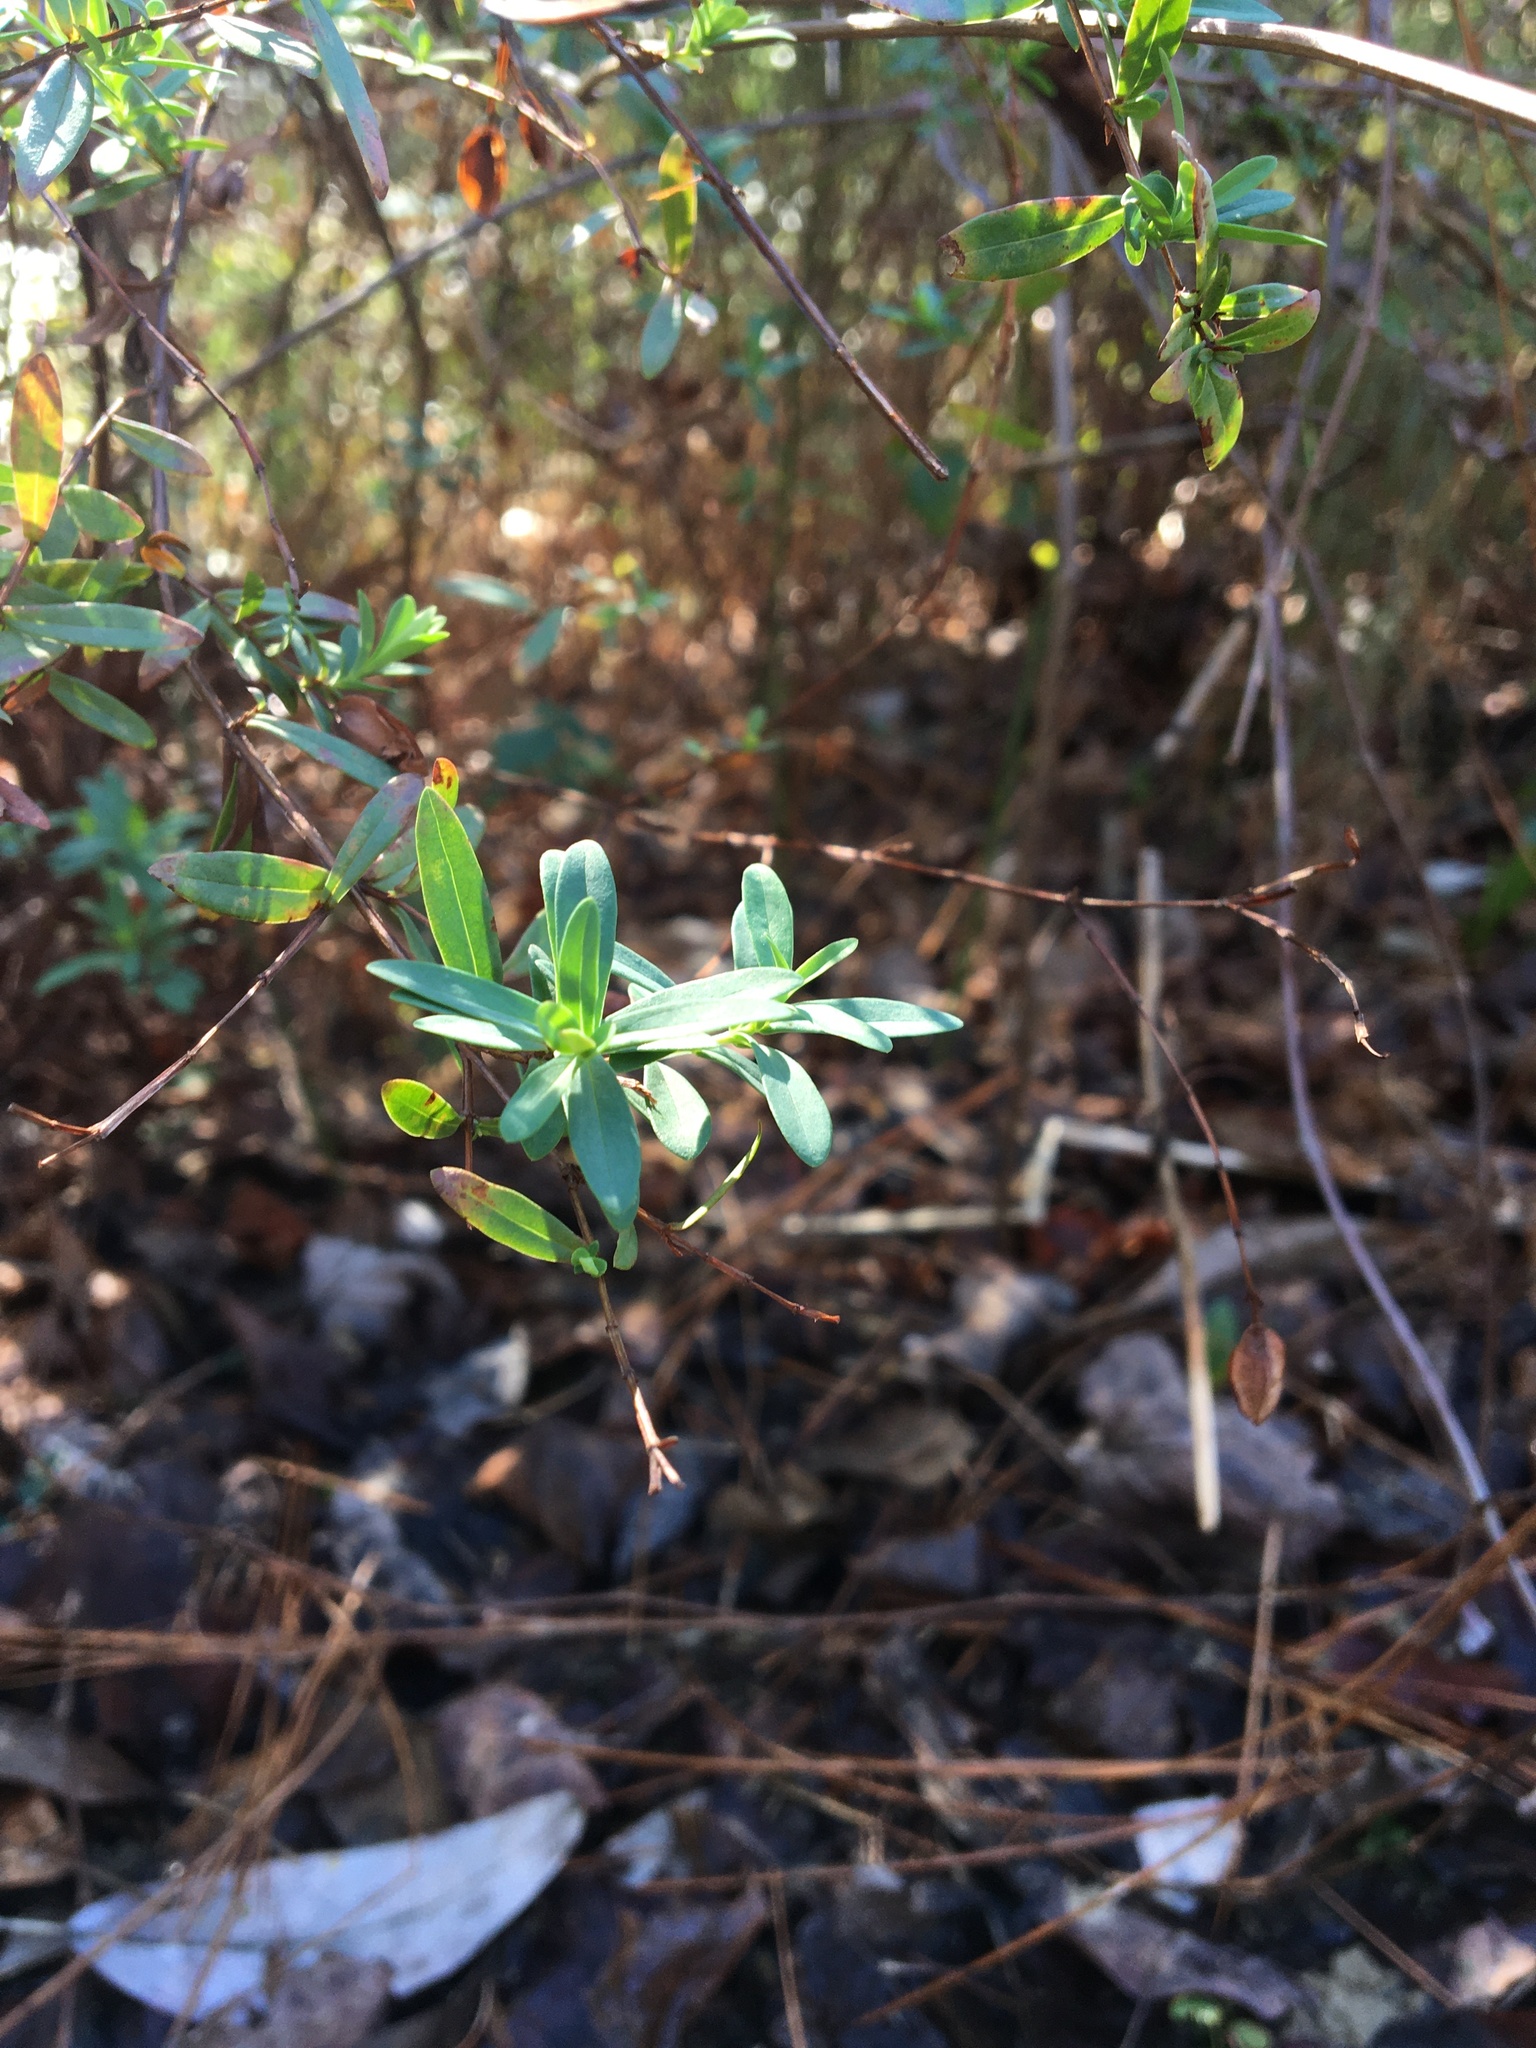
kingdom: Plantae
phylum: Tracheophyta
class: Magnoliopsida
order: Malpighiales
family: Hypericaceae
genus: Hypericum
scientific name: Hypericum hypericoides
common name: St. andrew's cross
